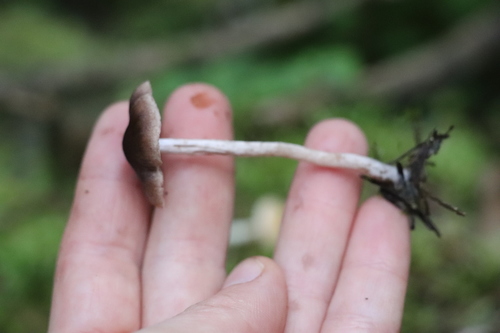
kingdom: Fungi
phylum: Basidiomycota
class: Agaricomycetes
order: Agaricales
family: Cortinariaceae
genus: Cortinarius
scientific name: Cortinarius
